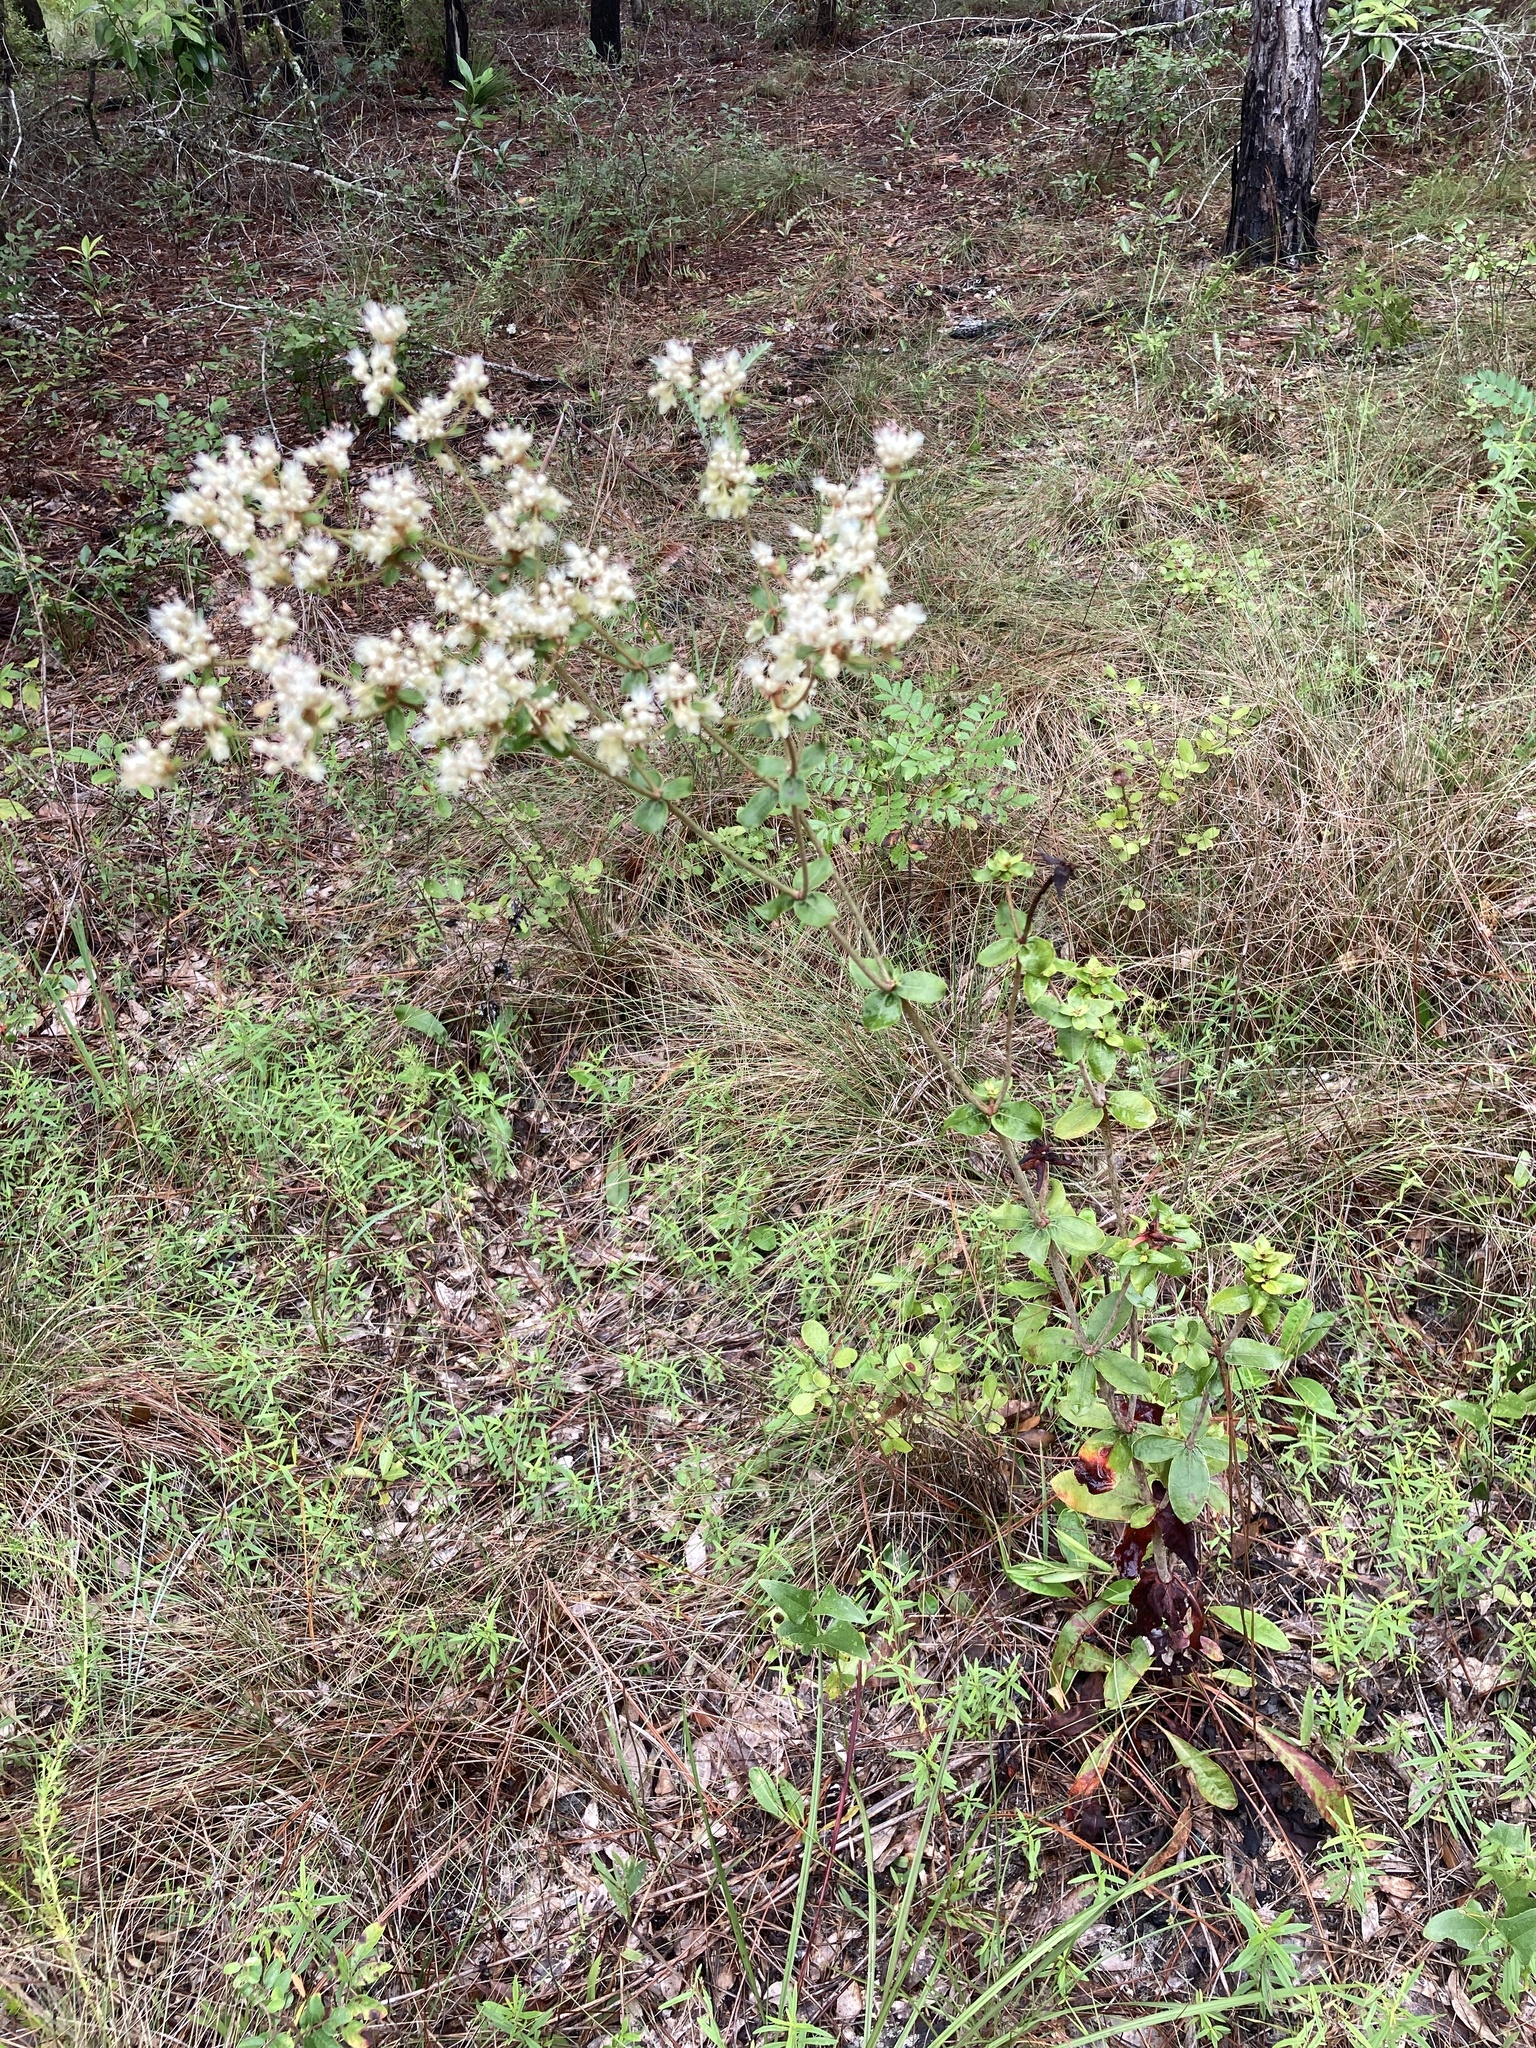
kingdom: Plantae
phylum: Tracheophyta
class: Magnoliopsida
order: Caryophyllales
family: Polygonaceae
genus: Eriogonum
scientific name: Eriogonum tomentosum
